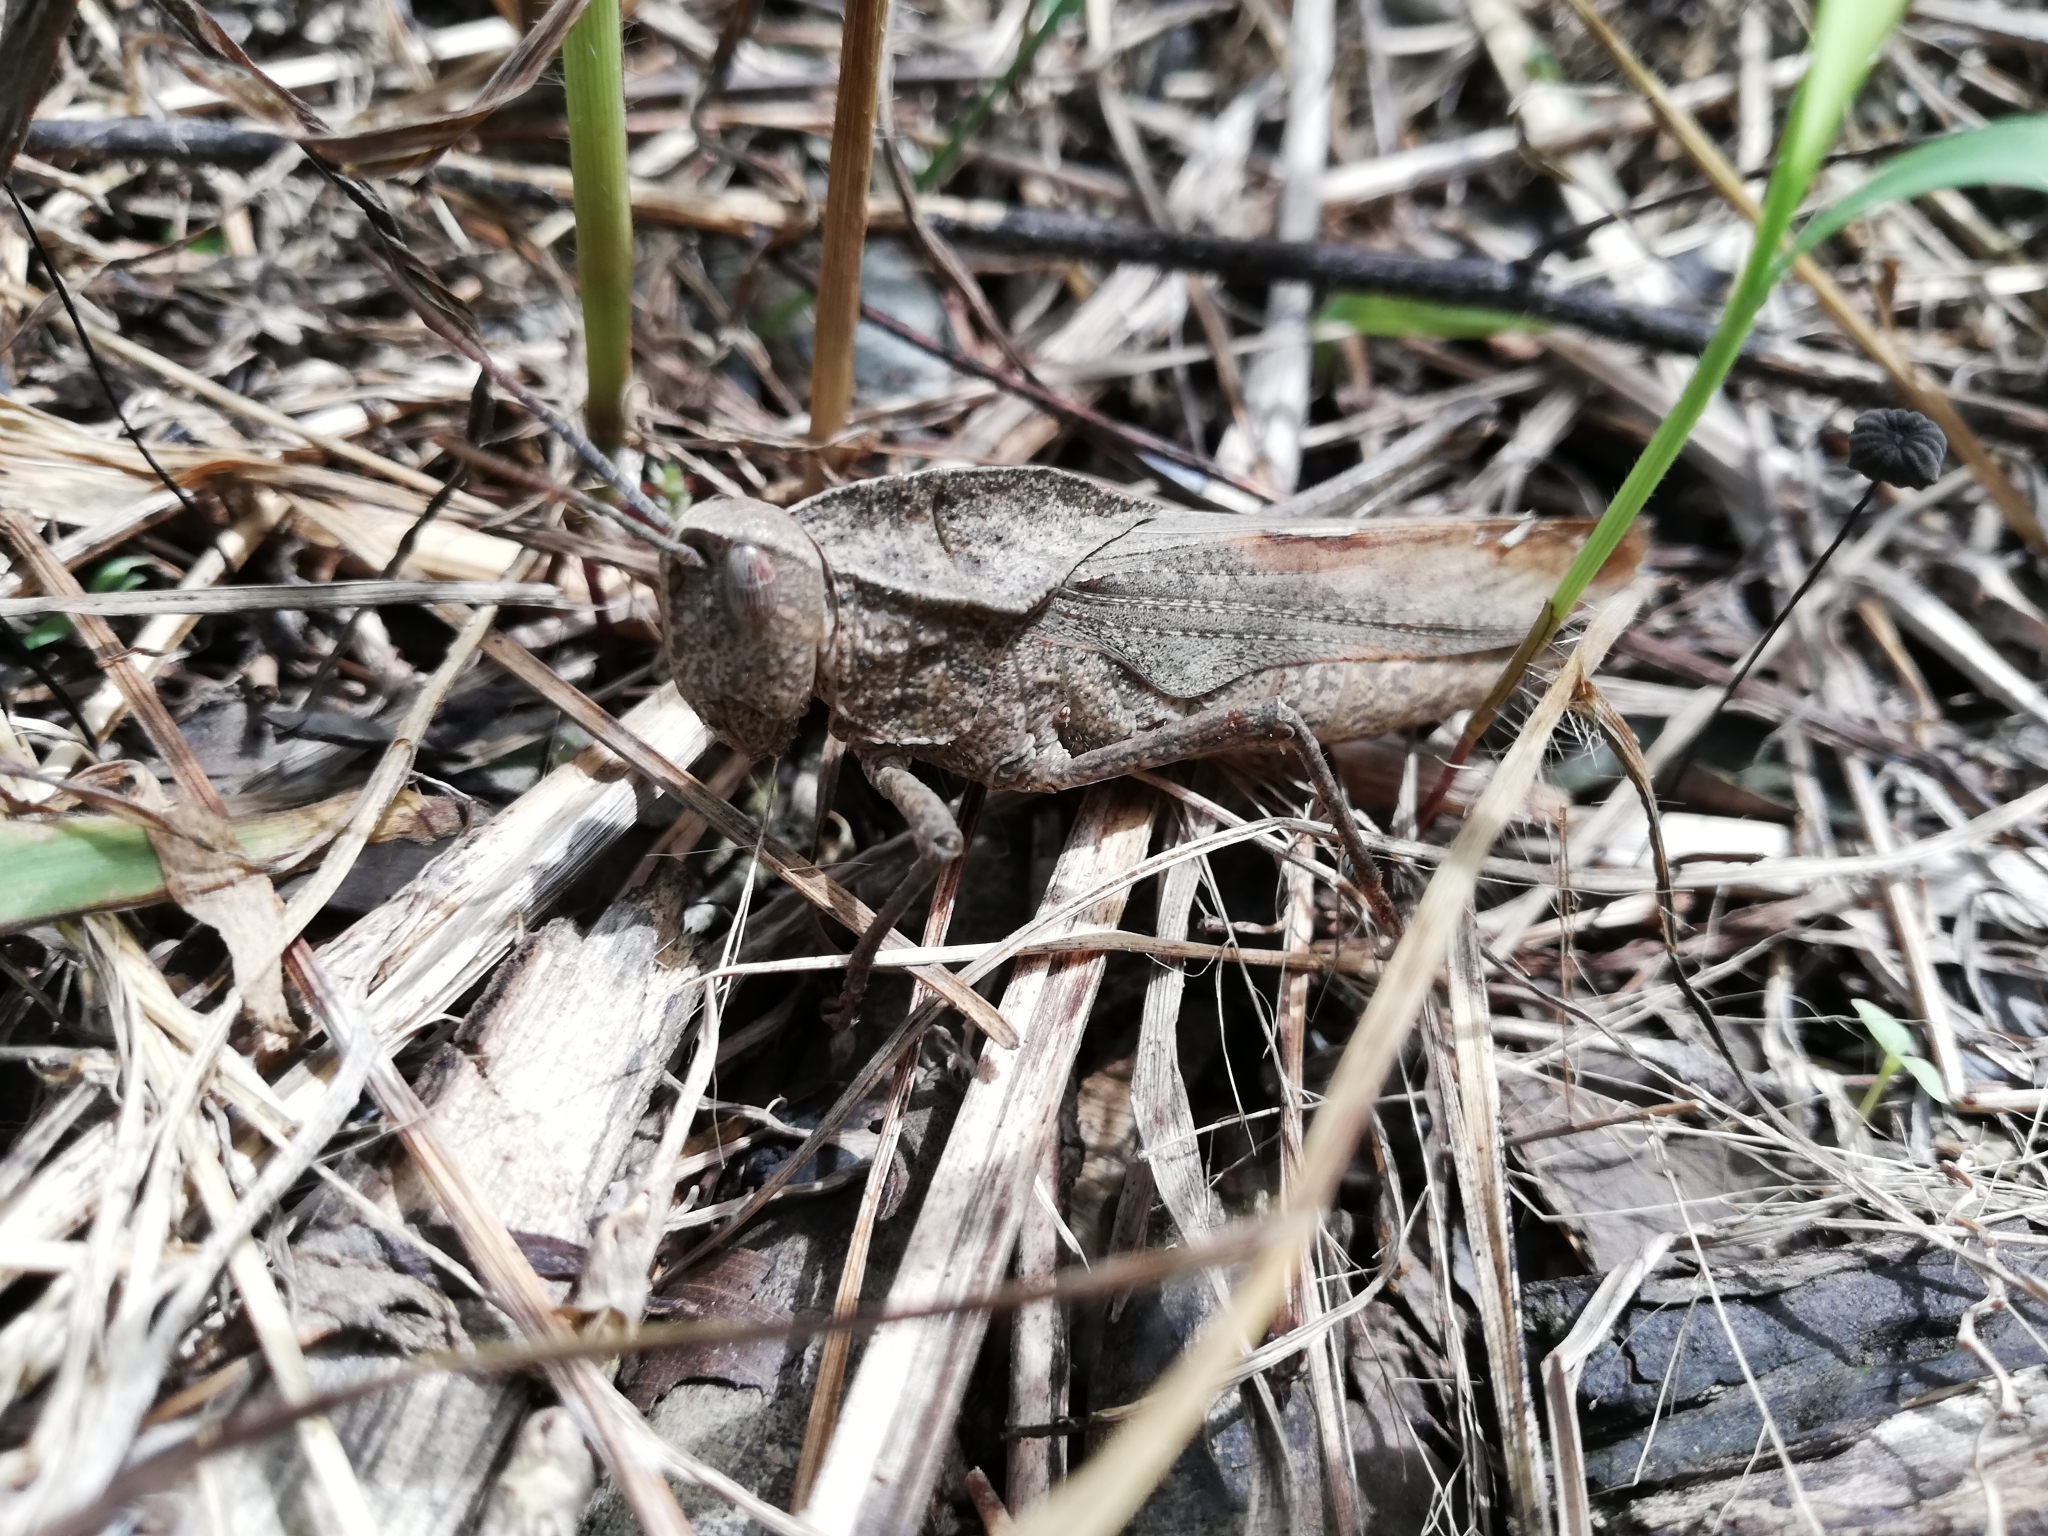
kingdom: Animalia
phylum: Arthropoda
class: Insecta
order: Orthoptera
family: Romaleidae
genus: Xyleus
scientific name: Xyleus discoideus
